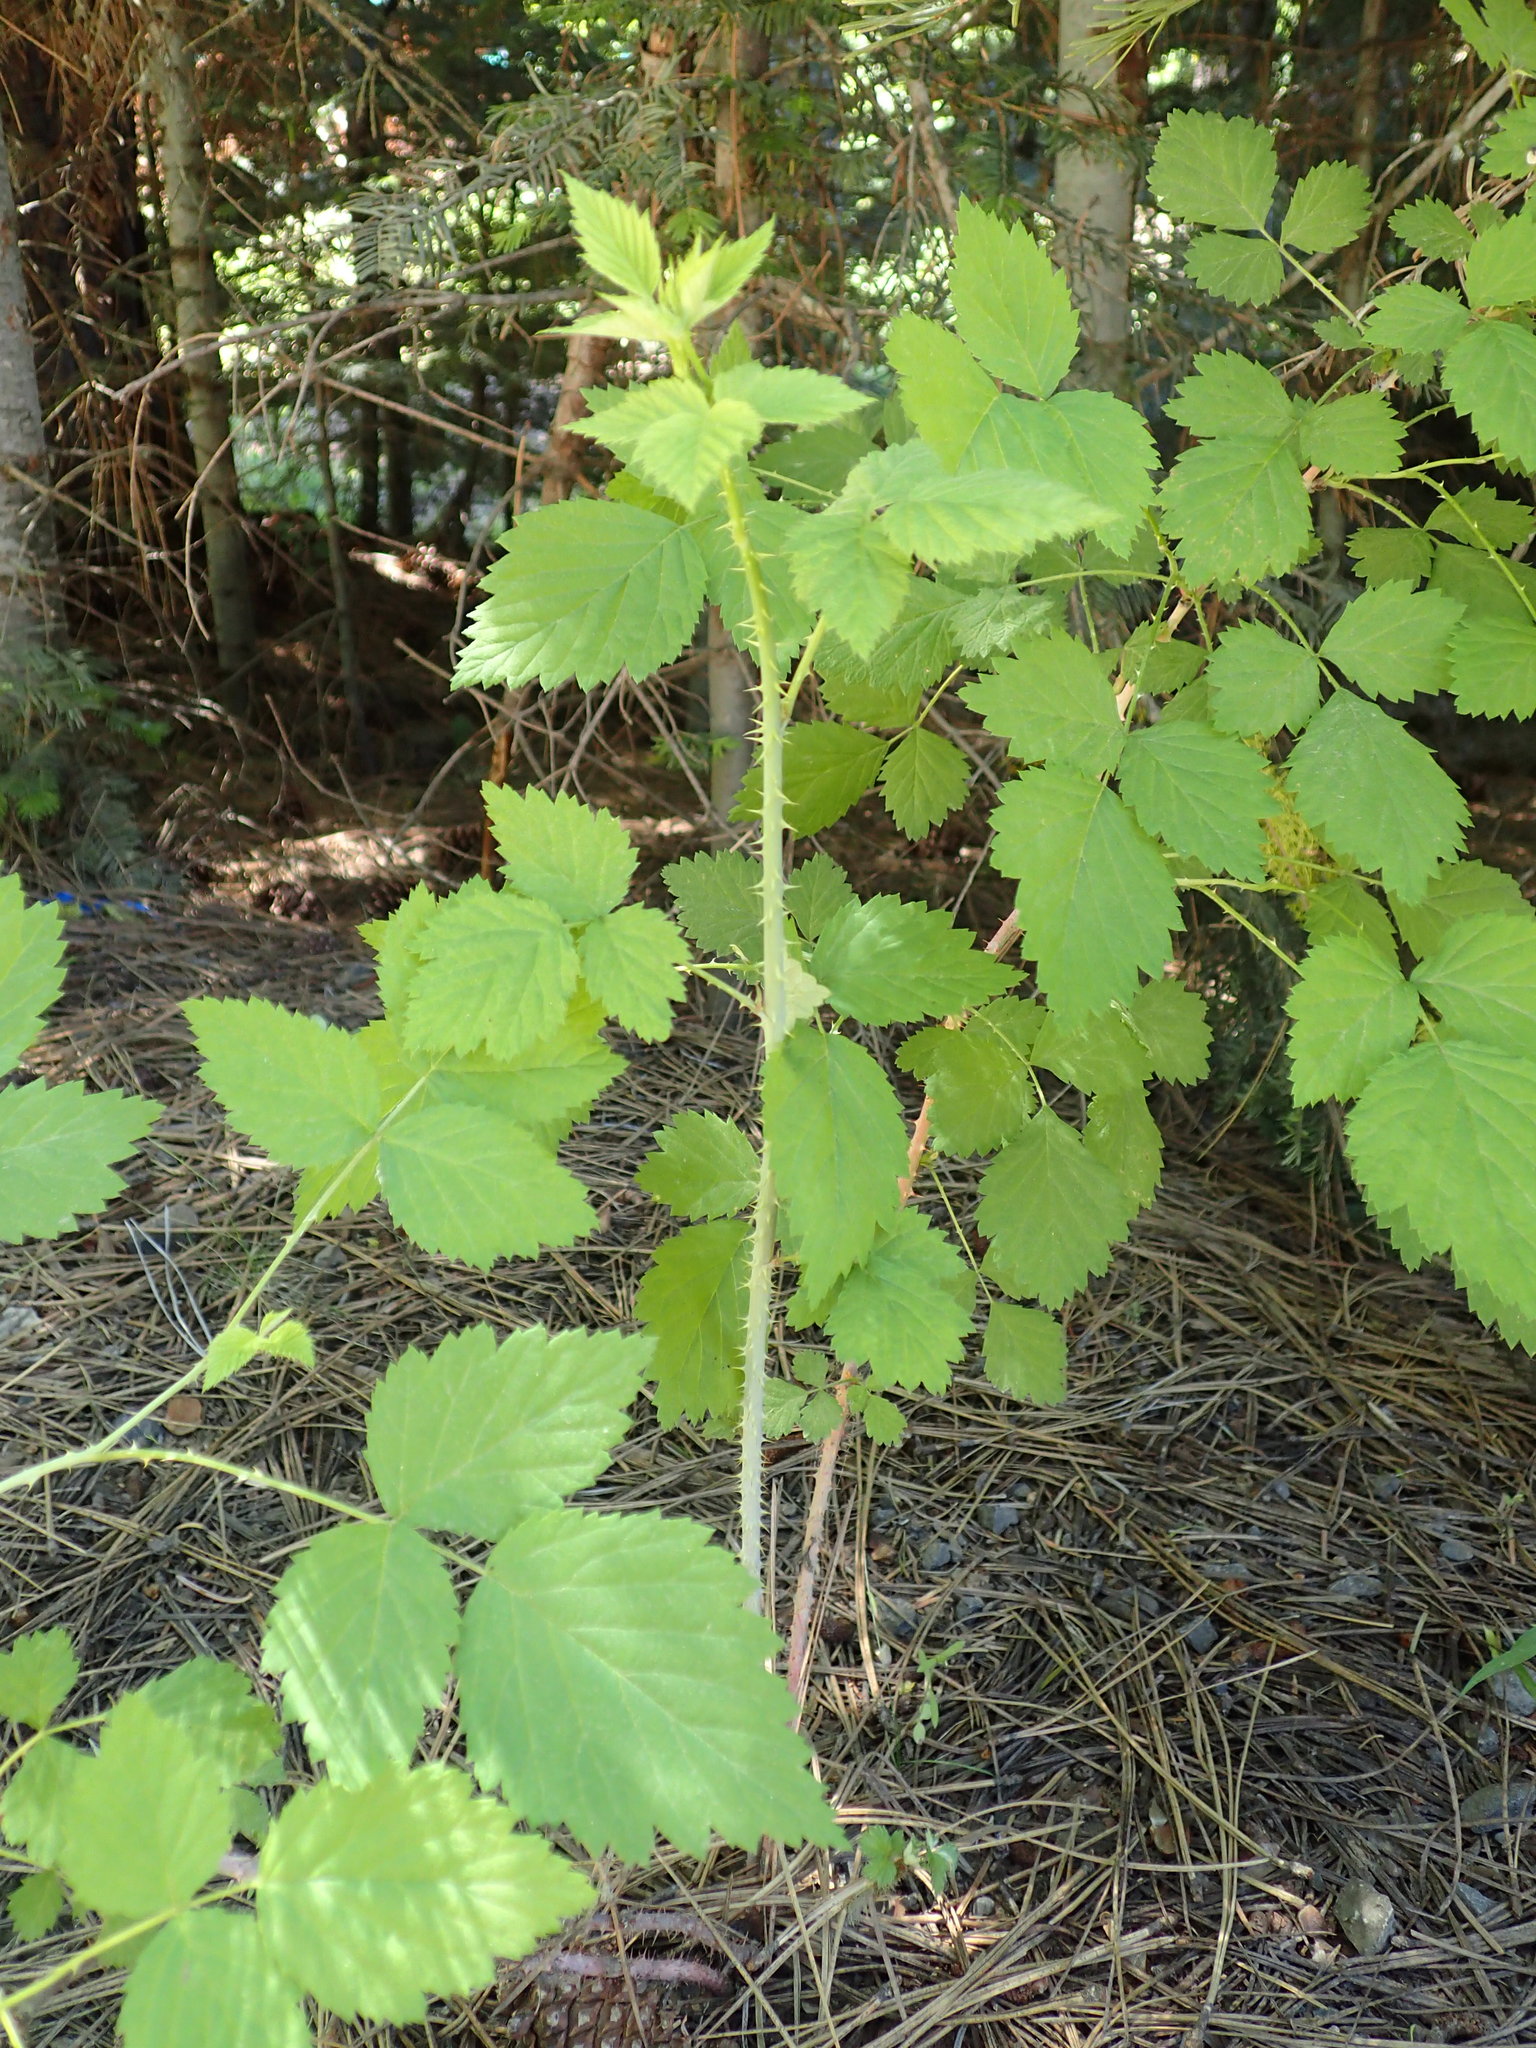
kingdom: Plantae
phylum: Tracheophyta
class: Magnoliopsida
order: Rosales
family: Rosaceae
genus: Rubus
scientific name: Rubus leucodermis
